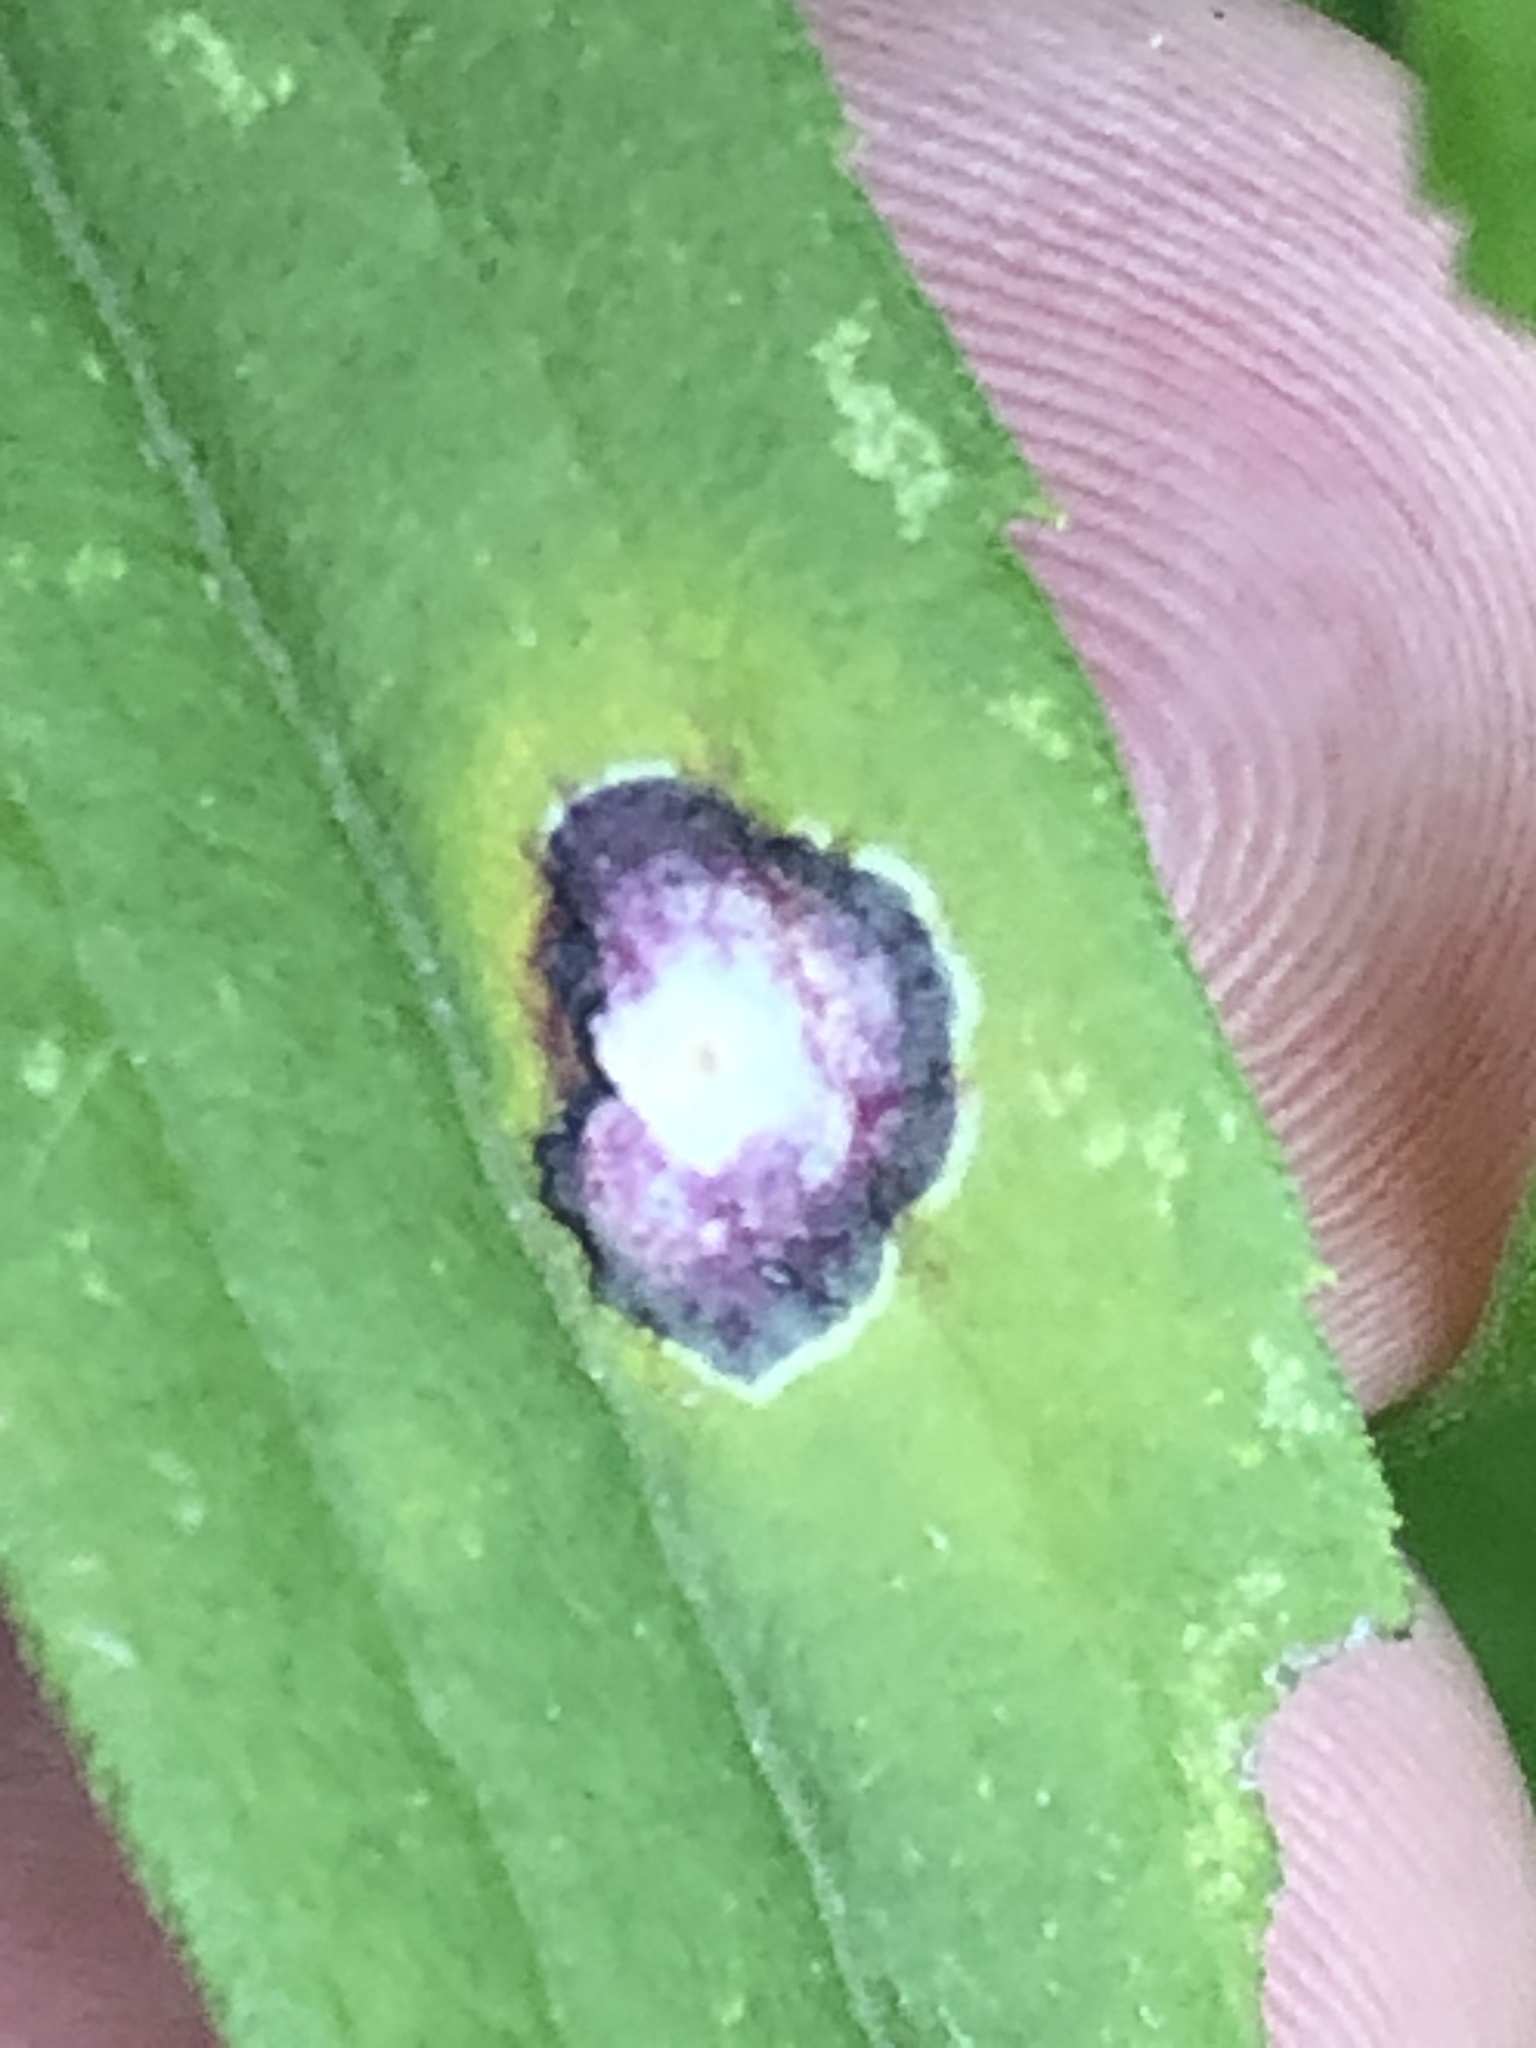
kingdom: Animalia
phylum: Arthropoda
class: Insecta
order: Diptera
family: Cecidomyiidae
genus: Asteromyia
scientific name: Asteromyia carbonifera
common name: Carbonifera goldenrod gall midge
